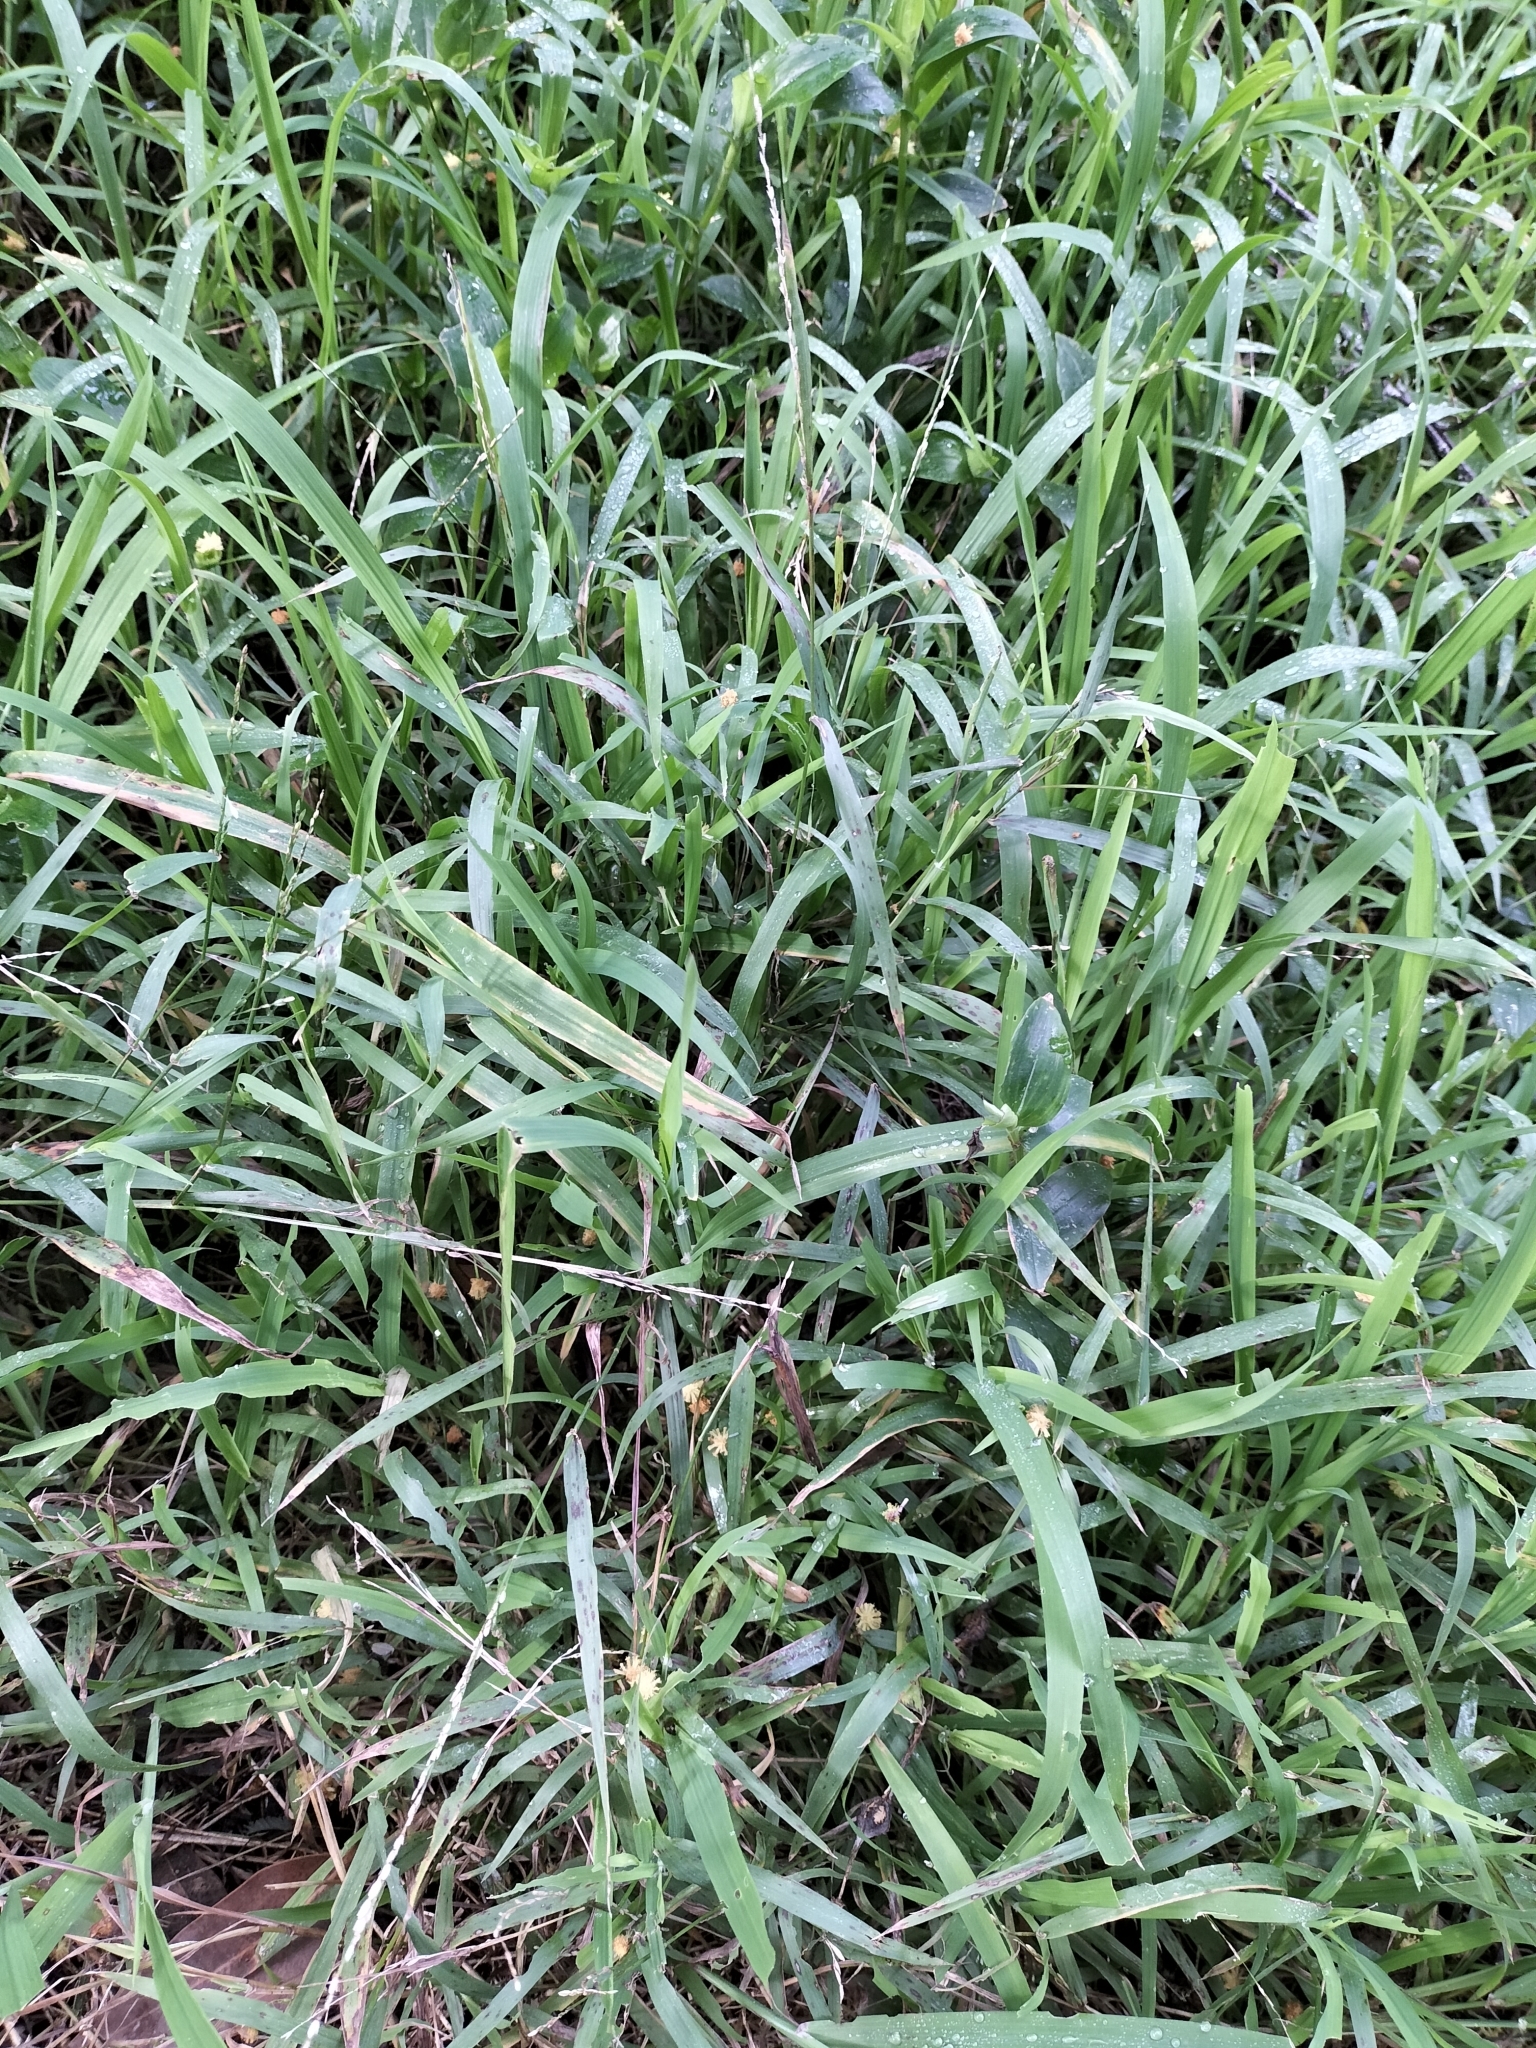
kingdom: Plantae
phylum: Tracheophyta
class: Liliopsida
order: Poales
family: Poaceae
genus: Ehrharta
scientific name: Ehrharta erecta
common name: Panic veldtgrass
